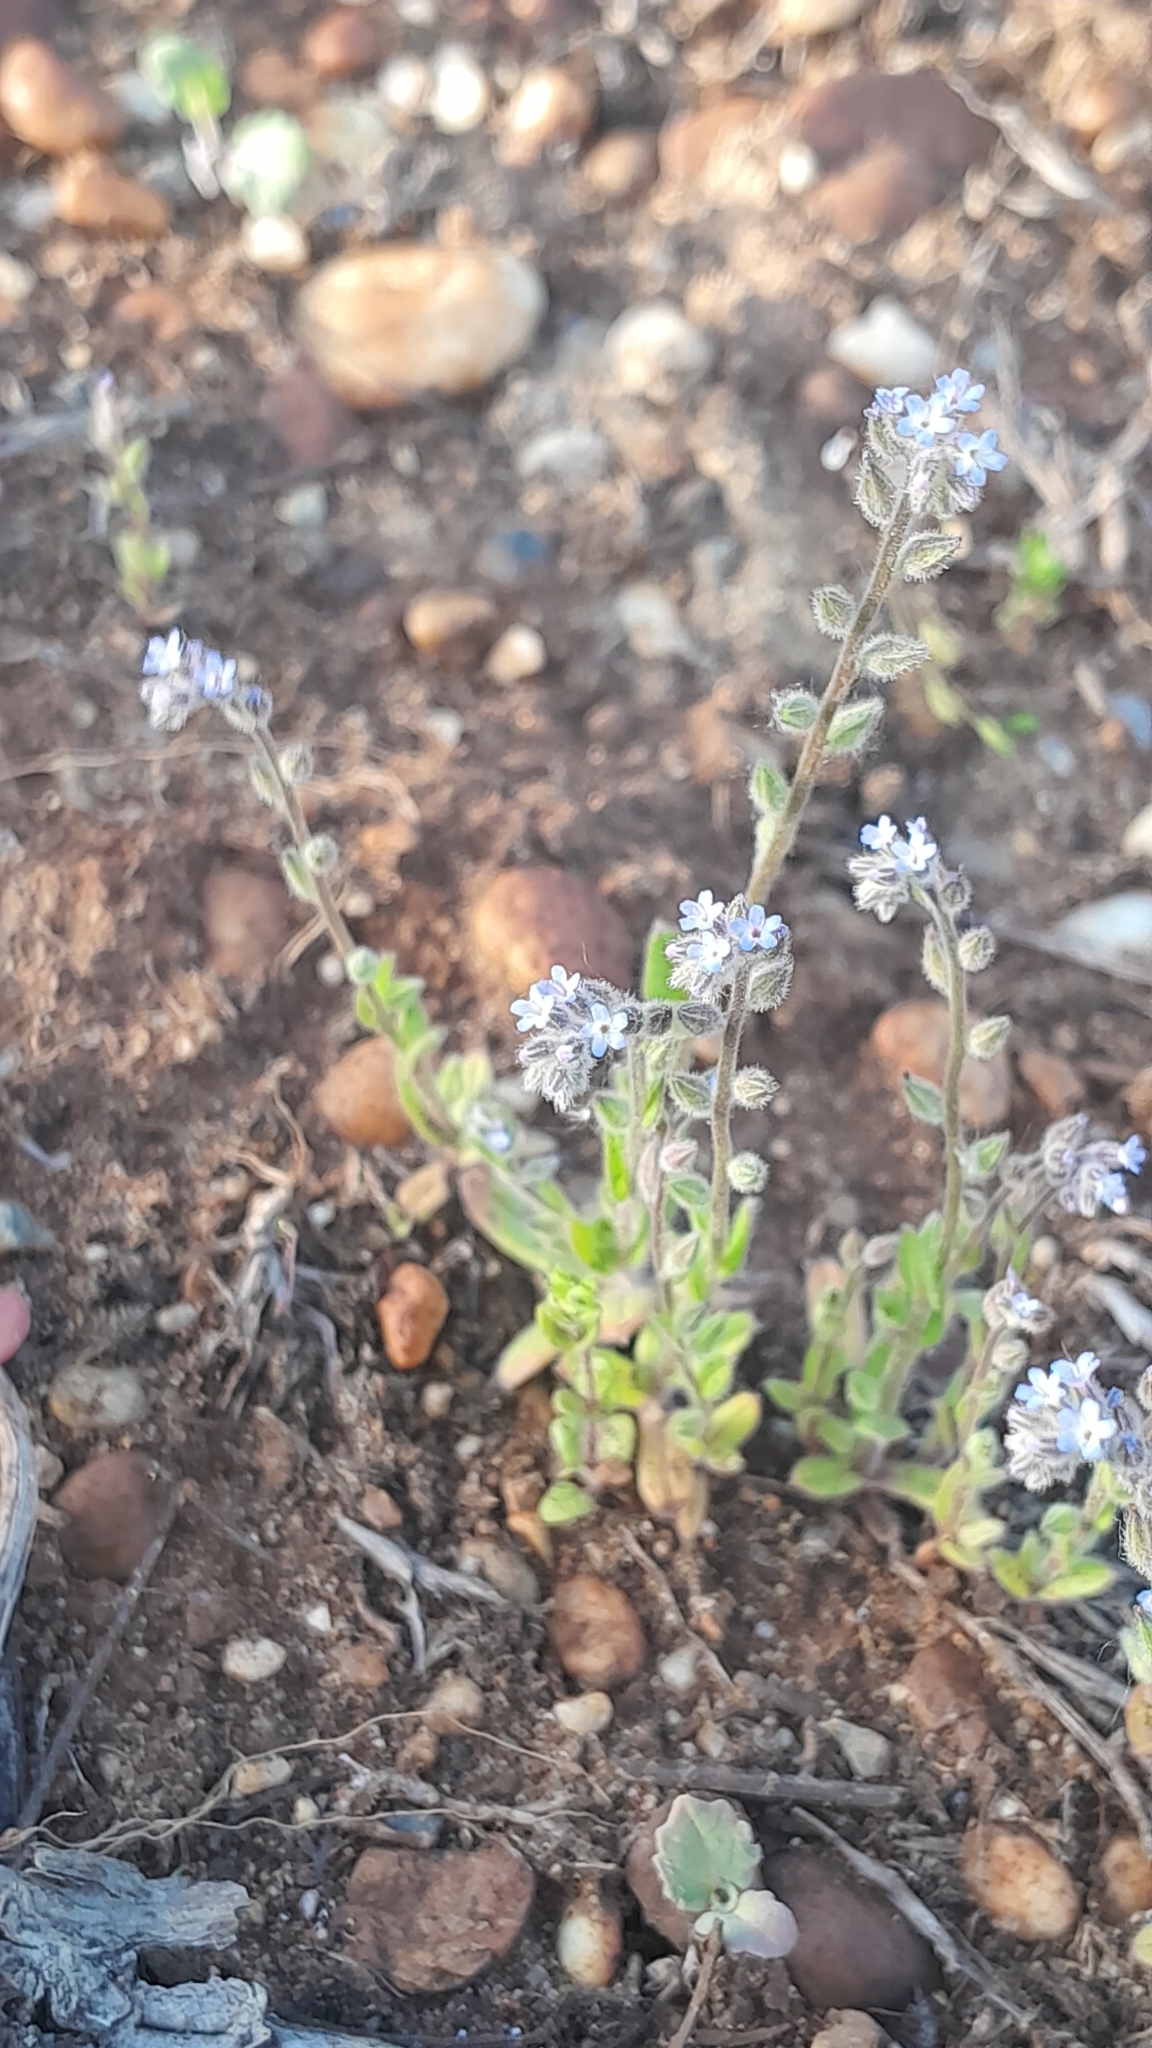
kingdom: Plantae
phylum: Tracheophyta
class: Magnoliopsida
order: Boraginales
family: Boraginaceae
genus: Myosotis
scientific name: Myosotis stricta
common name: Strict forget-me-not
